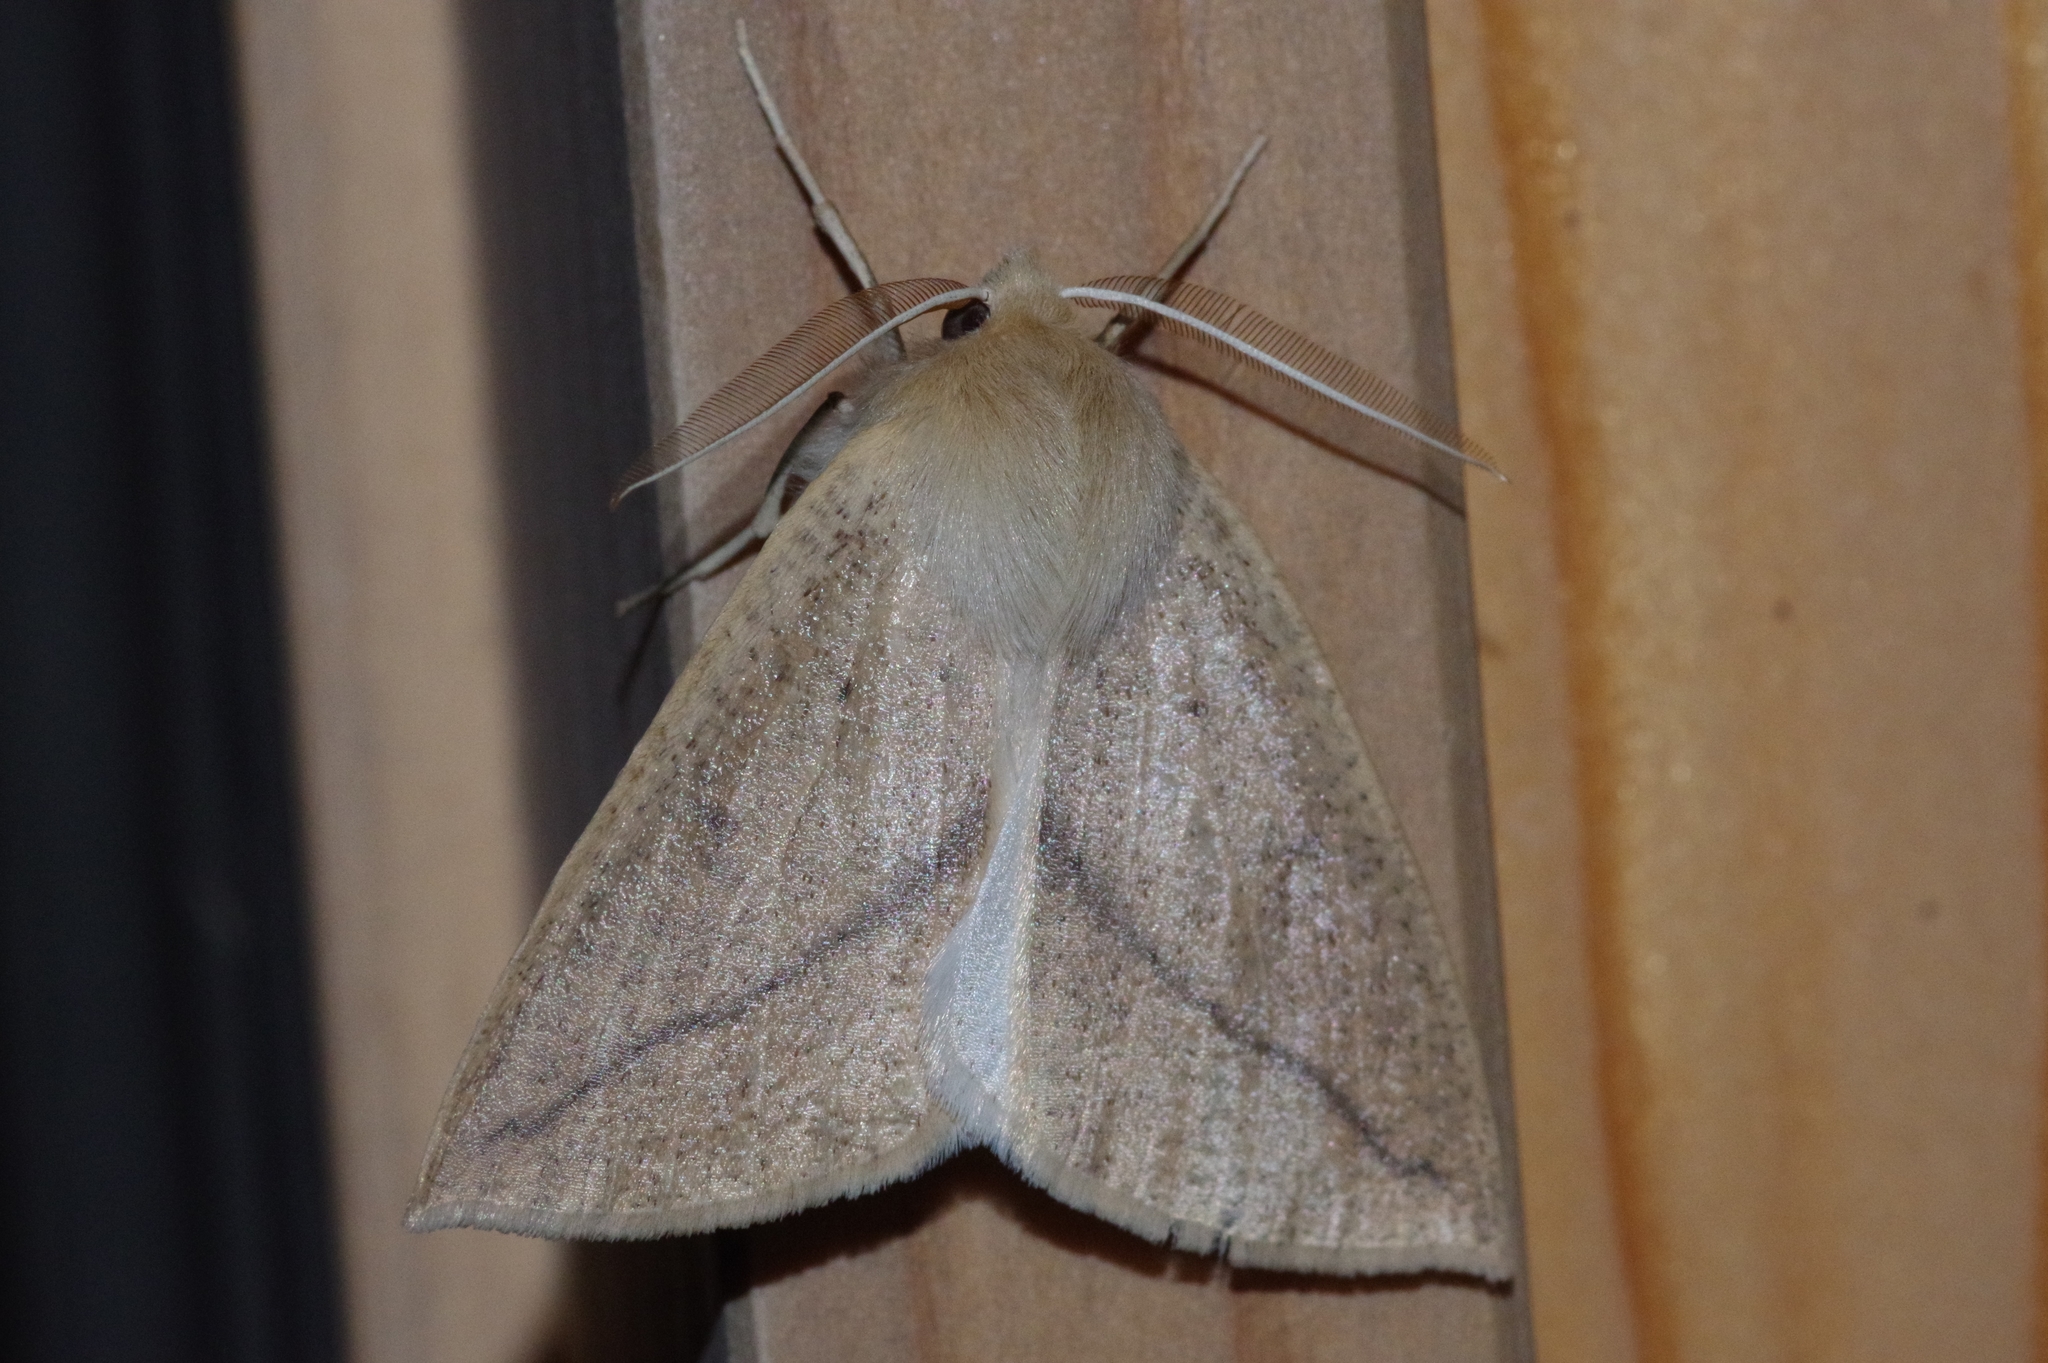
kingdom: Animalia
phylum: Arthropoda
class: Insecta
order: Lepidoptera
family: Geometridae
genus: Descoreba
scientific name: Descoreba simplex
